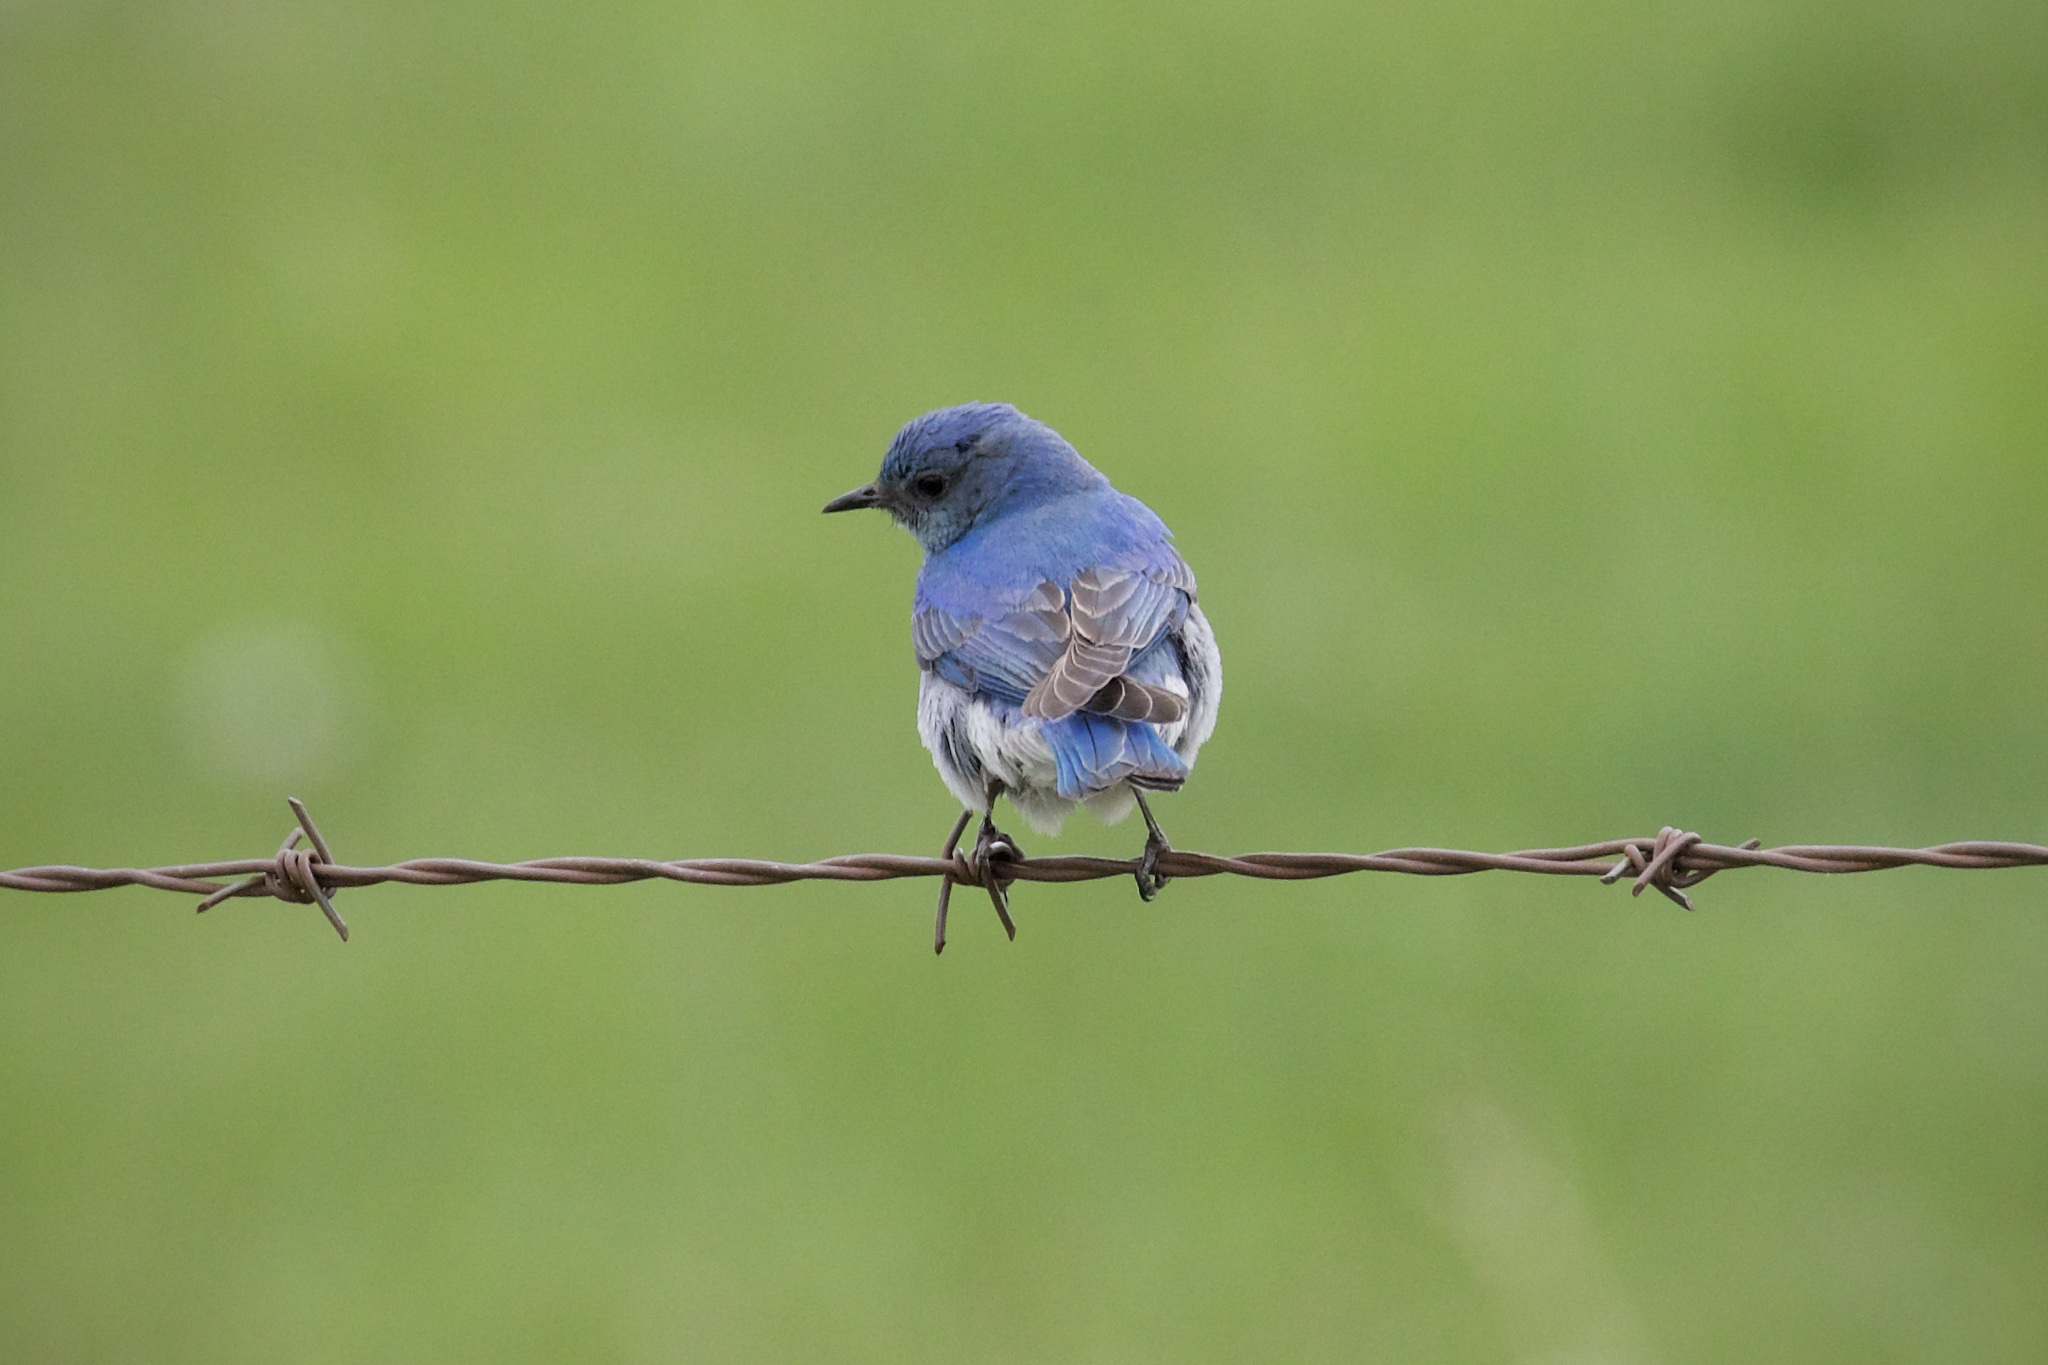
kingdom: Animalia
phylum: Chordata
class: Aves
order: Passeriformes
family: Turdidae
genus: Sialia
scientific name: Sialia currucoides
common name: Mountain bluebird
